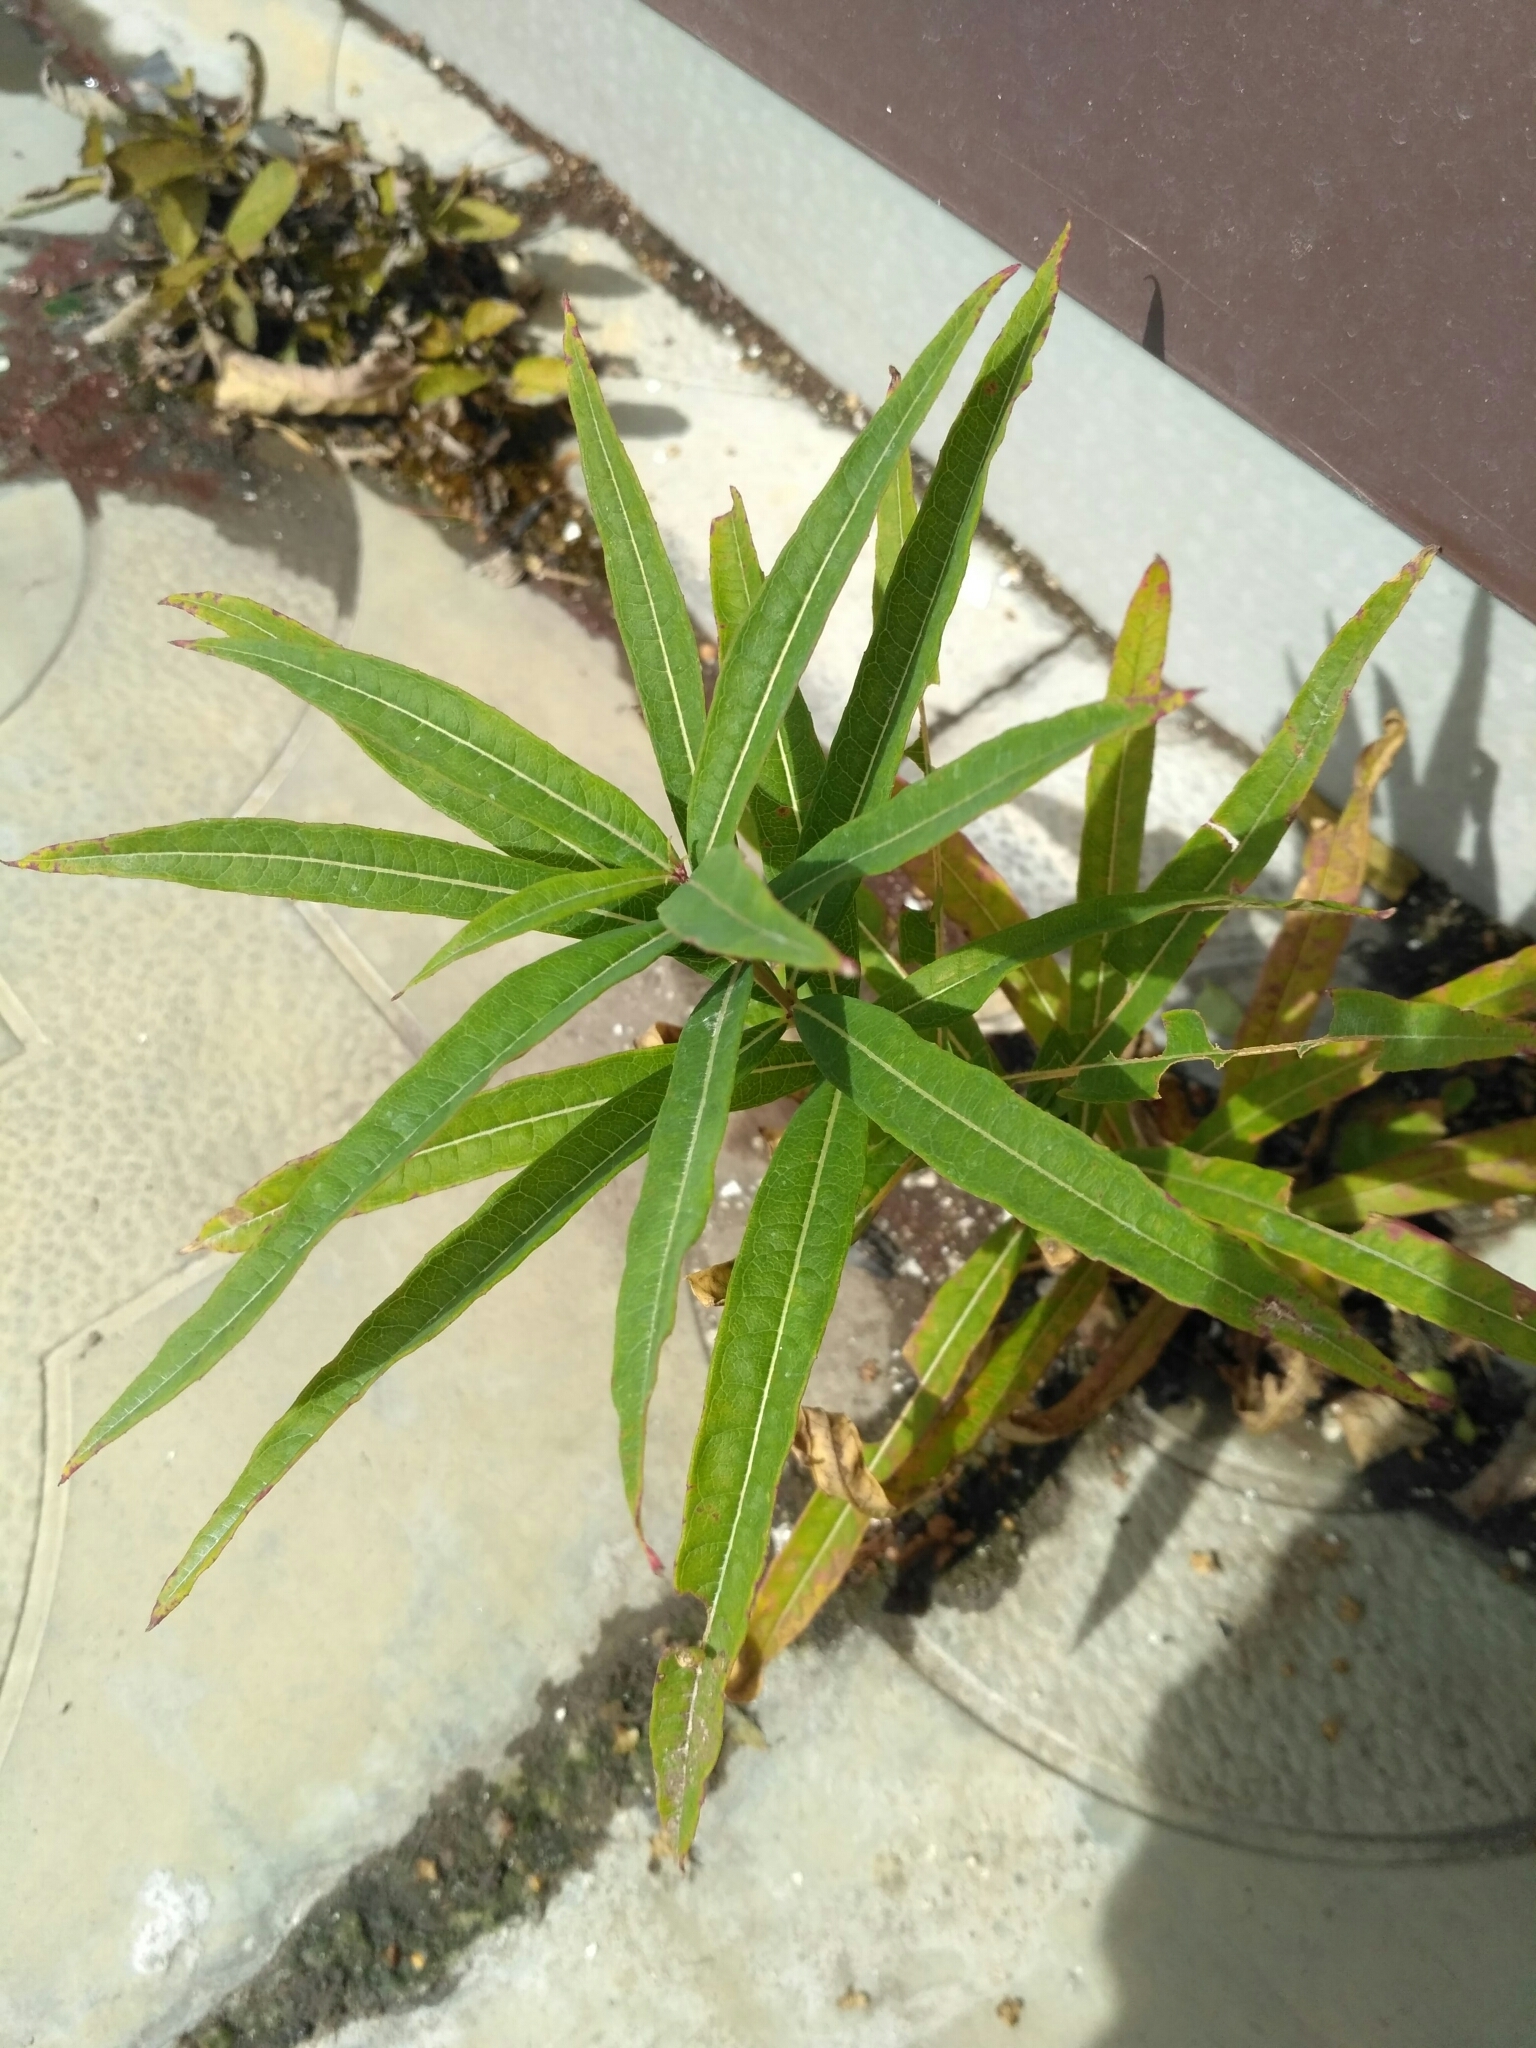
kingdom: Plantae
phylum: Tracheophyta
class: Magnoliopsida
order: Myrtales
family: Onagraceae
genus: Chamaenerion
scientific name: Chamaenerion angustifolium
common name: Fireweed
